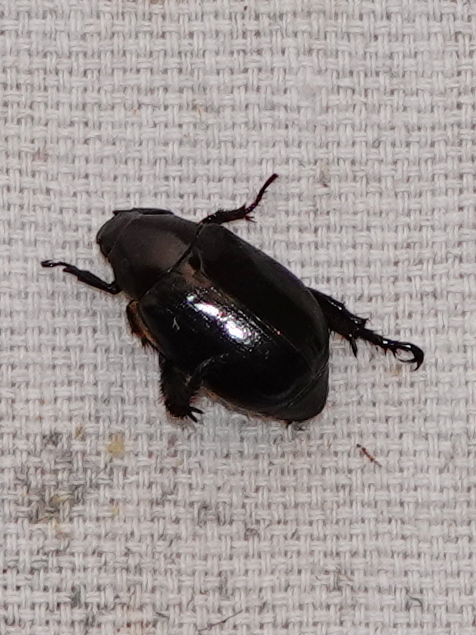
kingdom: Animalia
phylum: Arthropoda
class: Insecta
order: Coleoptera
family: Scarabaeidae
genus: Anomala
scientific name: Anomala trochanterica
